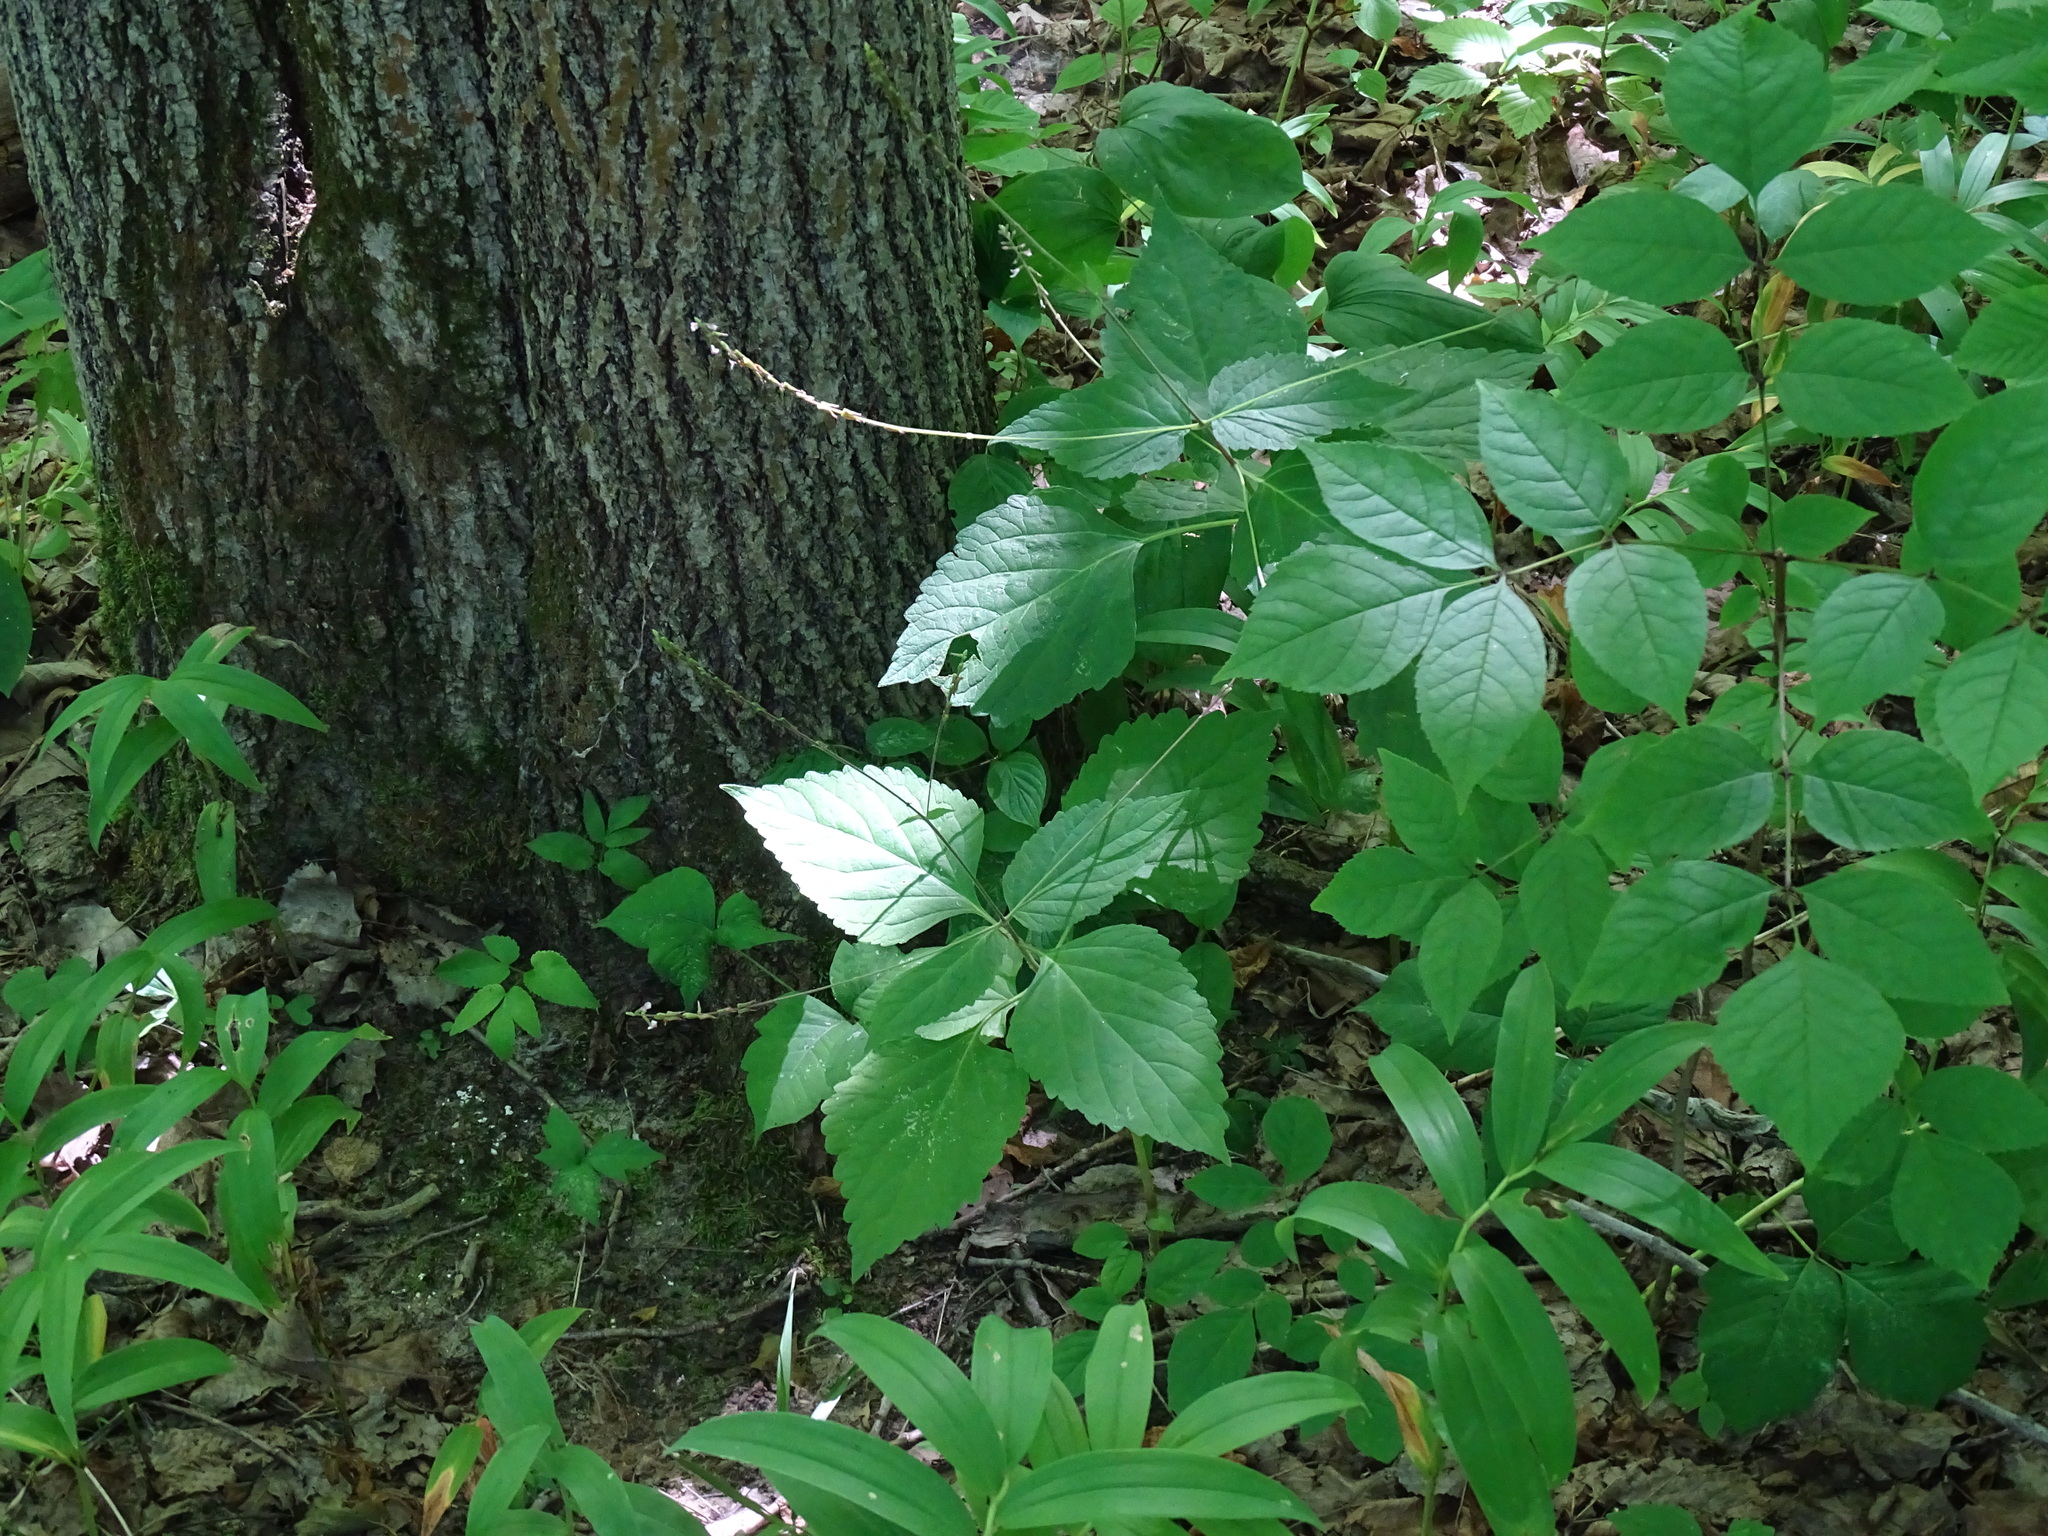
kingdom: Plantae
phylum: Tracheophyta
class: Magnoliopsida
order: Lamiales
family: Phrymaceae
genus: Phryma
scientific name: Phryma leptostachya
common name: American lopseed
